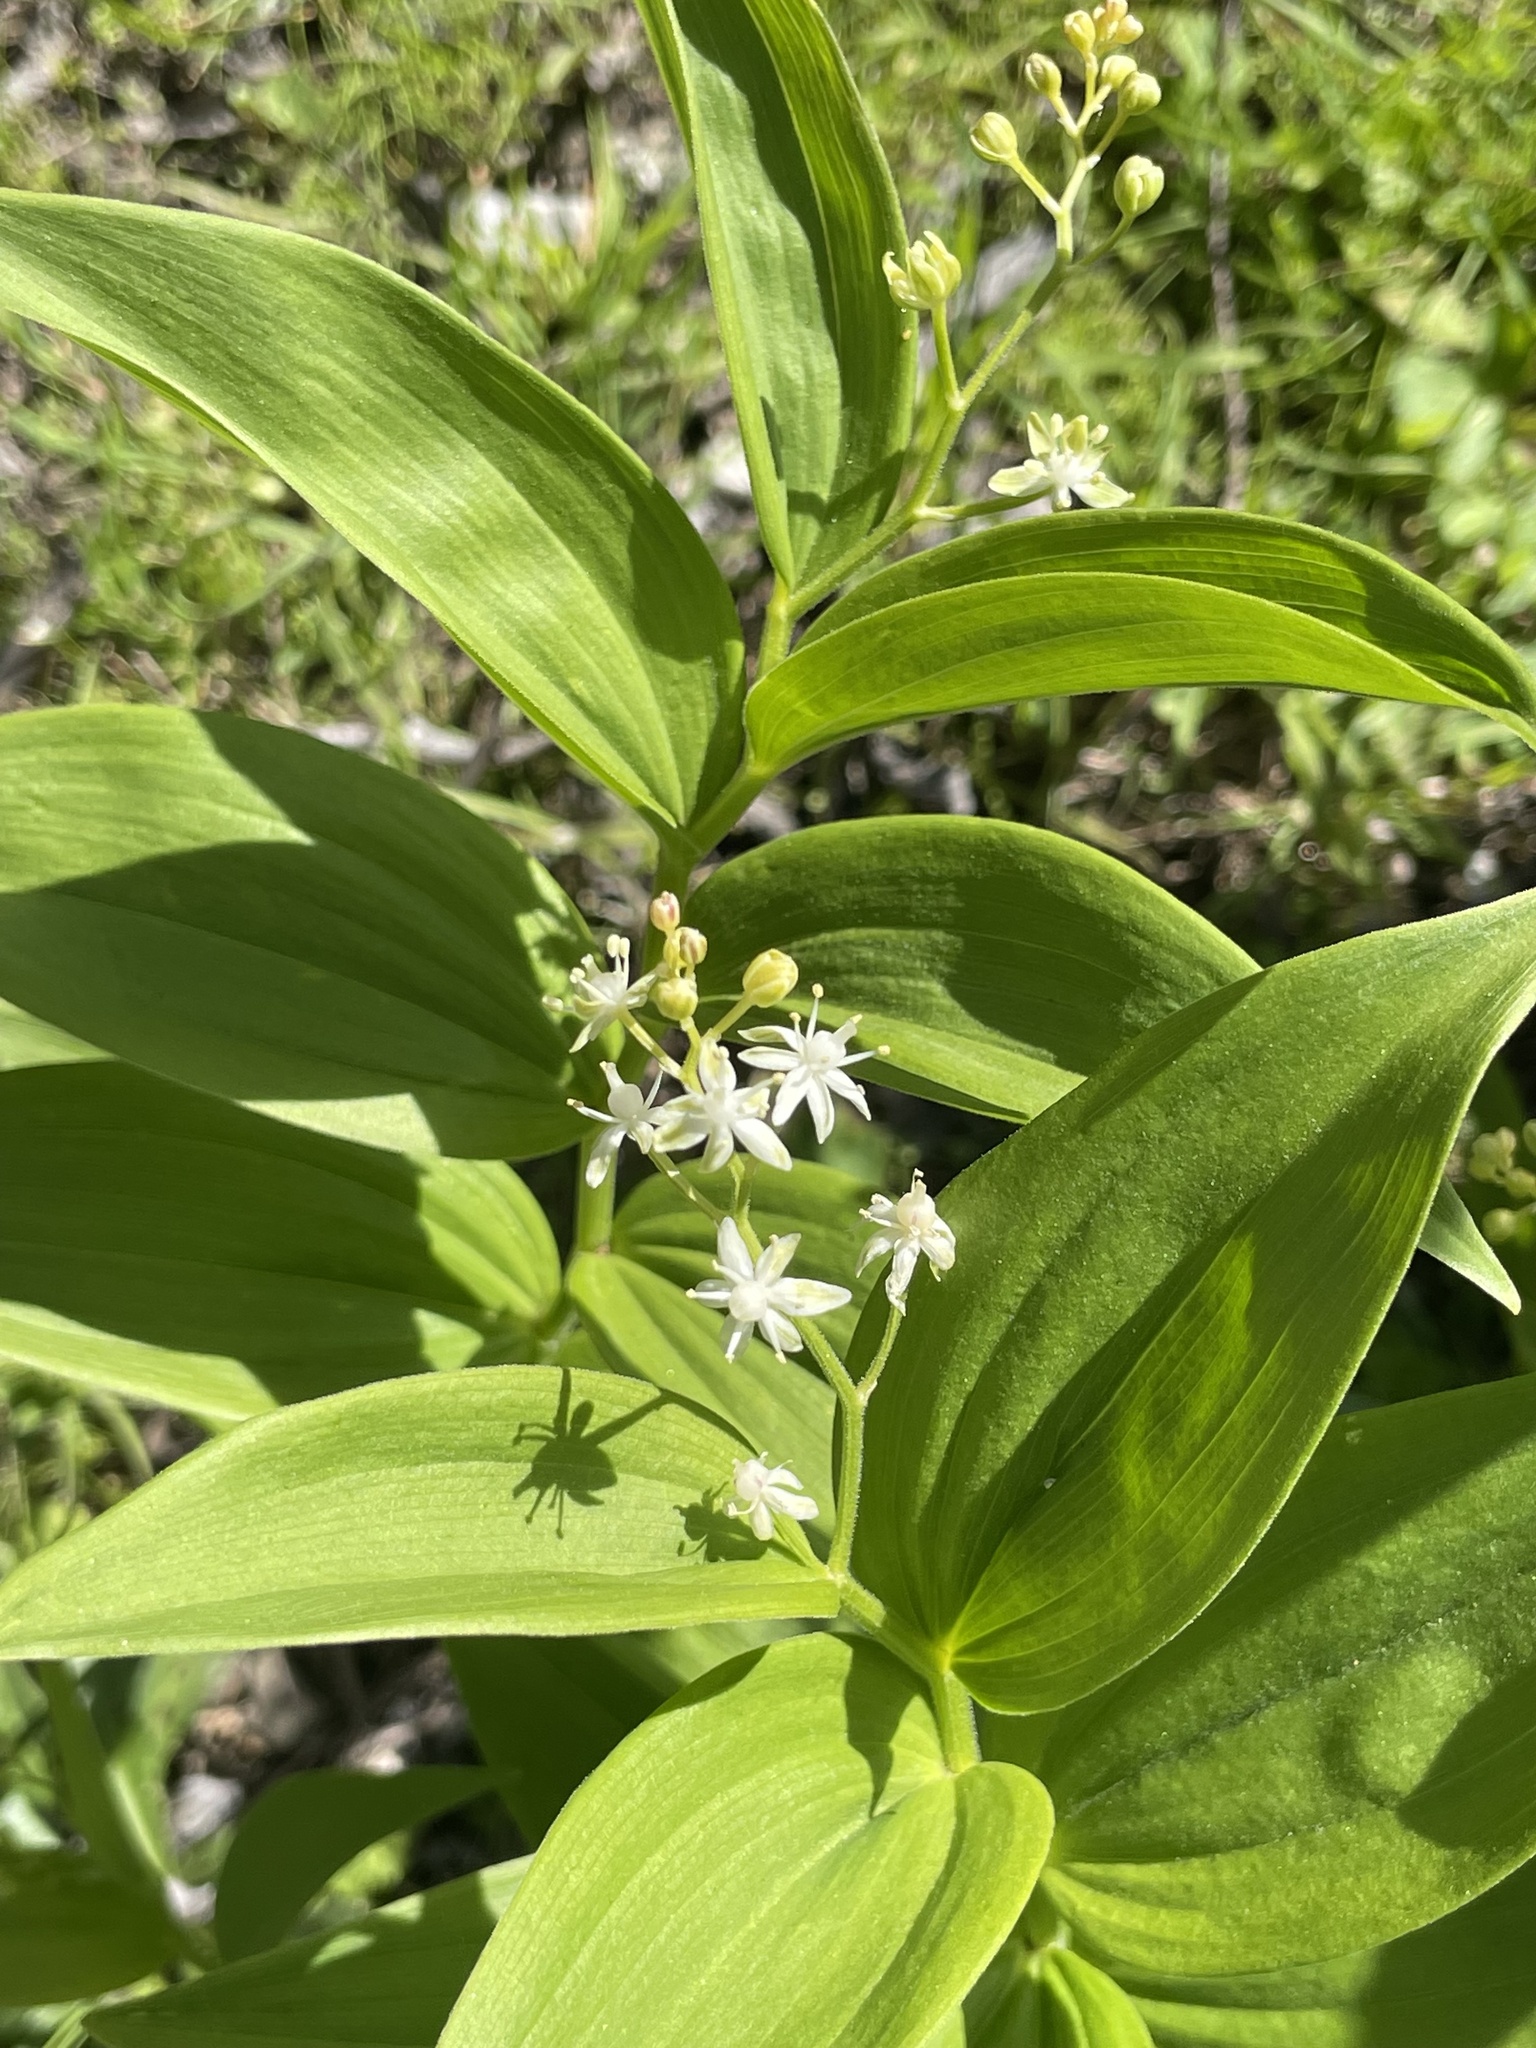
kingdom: Plantae
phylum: Tracheophyta
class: Liliopsida
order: Asparagales
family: Asparagaceae
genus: Maianthemum
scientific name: Maianthemum stellatum
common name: Little false solomon's seal
